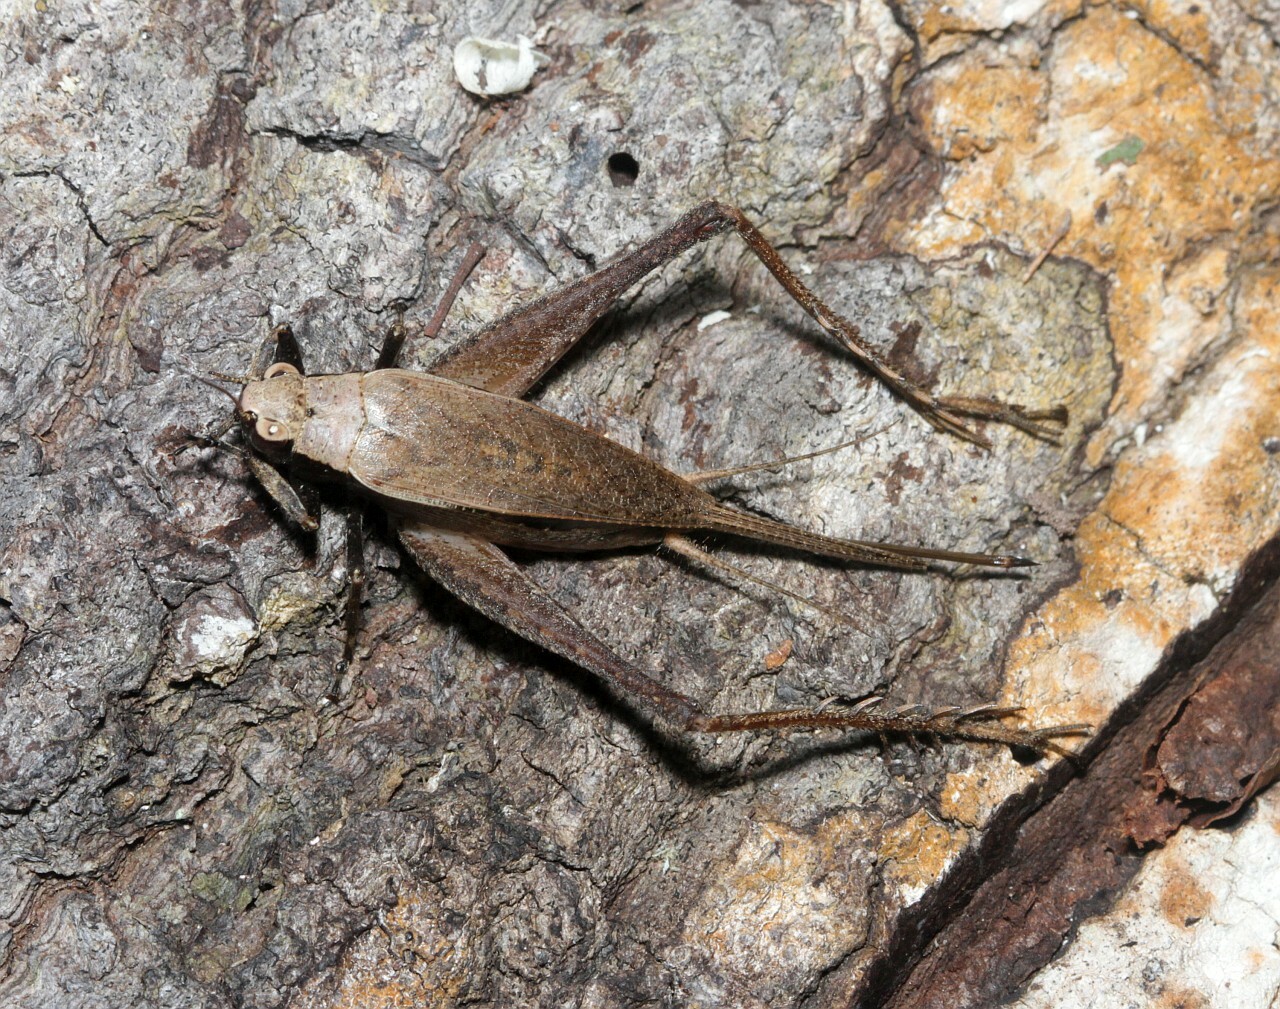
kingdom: Animalia
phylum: Arthropoda
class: Insecta
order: Orthoptera
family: Gryllidae
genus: Eneoptera
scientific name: Eneoptera surinamensis
